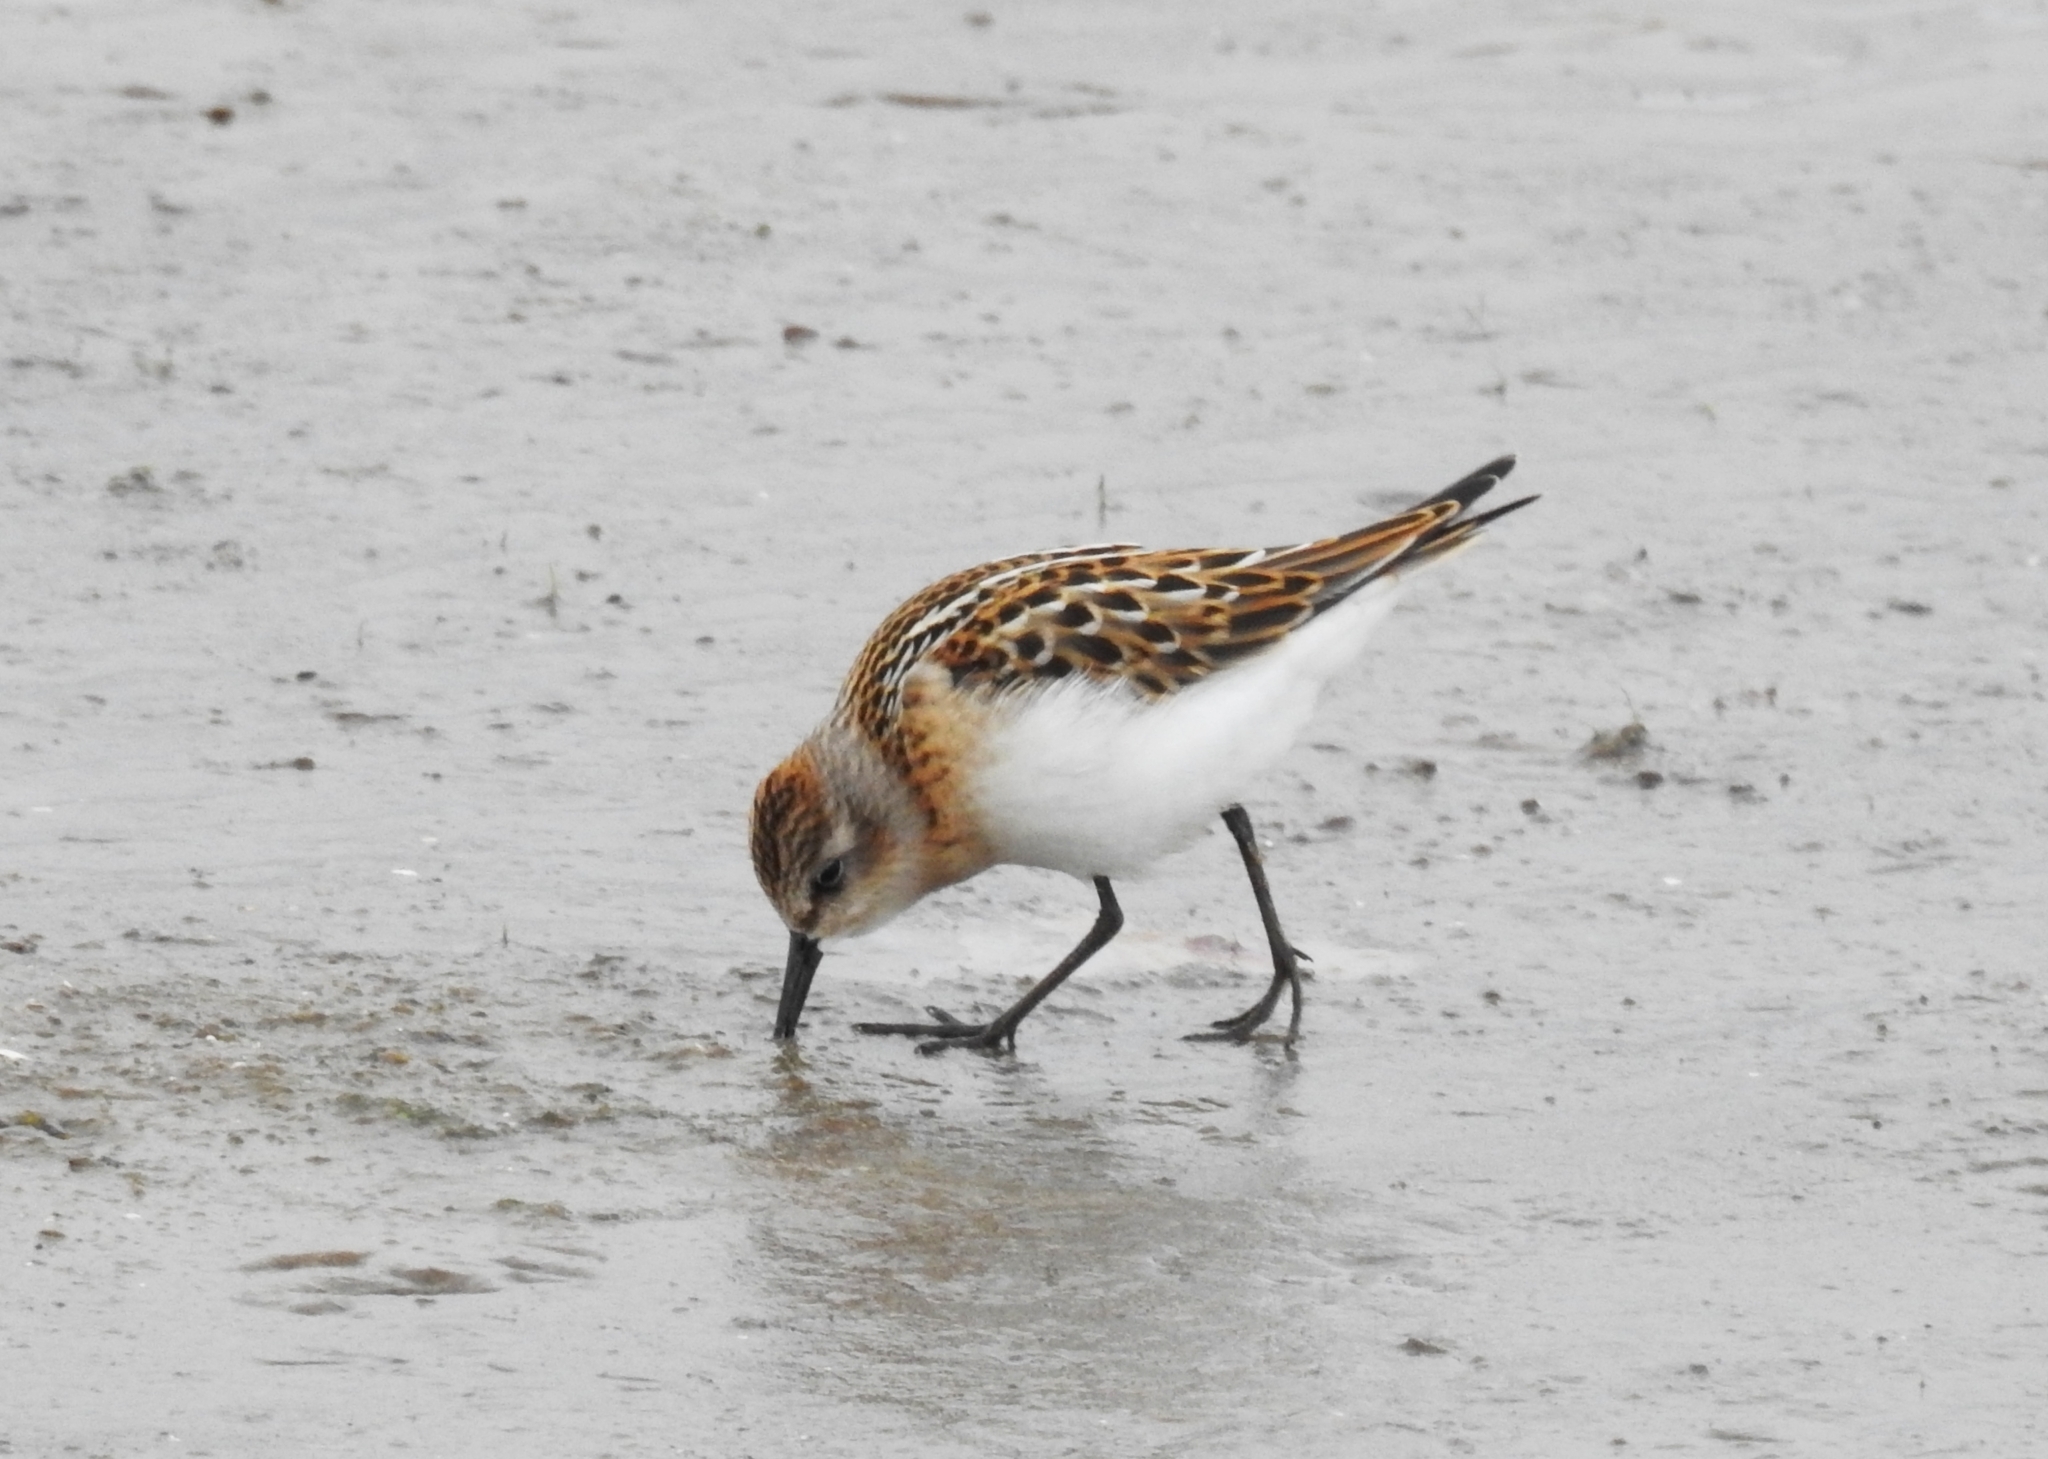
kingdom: Animalia
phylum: Chordata
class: Aves
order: Charadriiformes
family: Scolopacidae
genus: Calidris
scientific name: Calidris minuta
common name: Little stint
